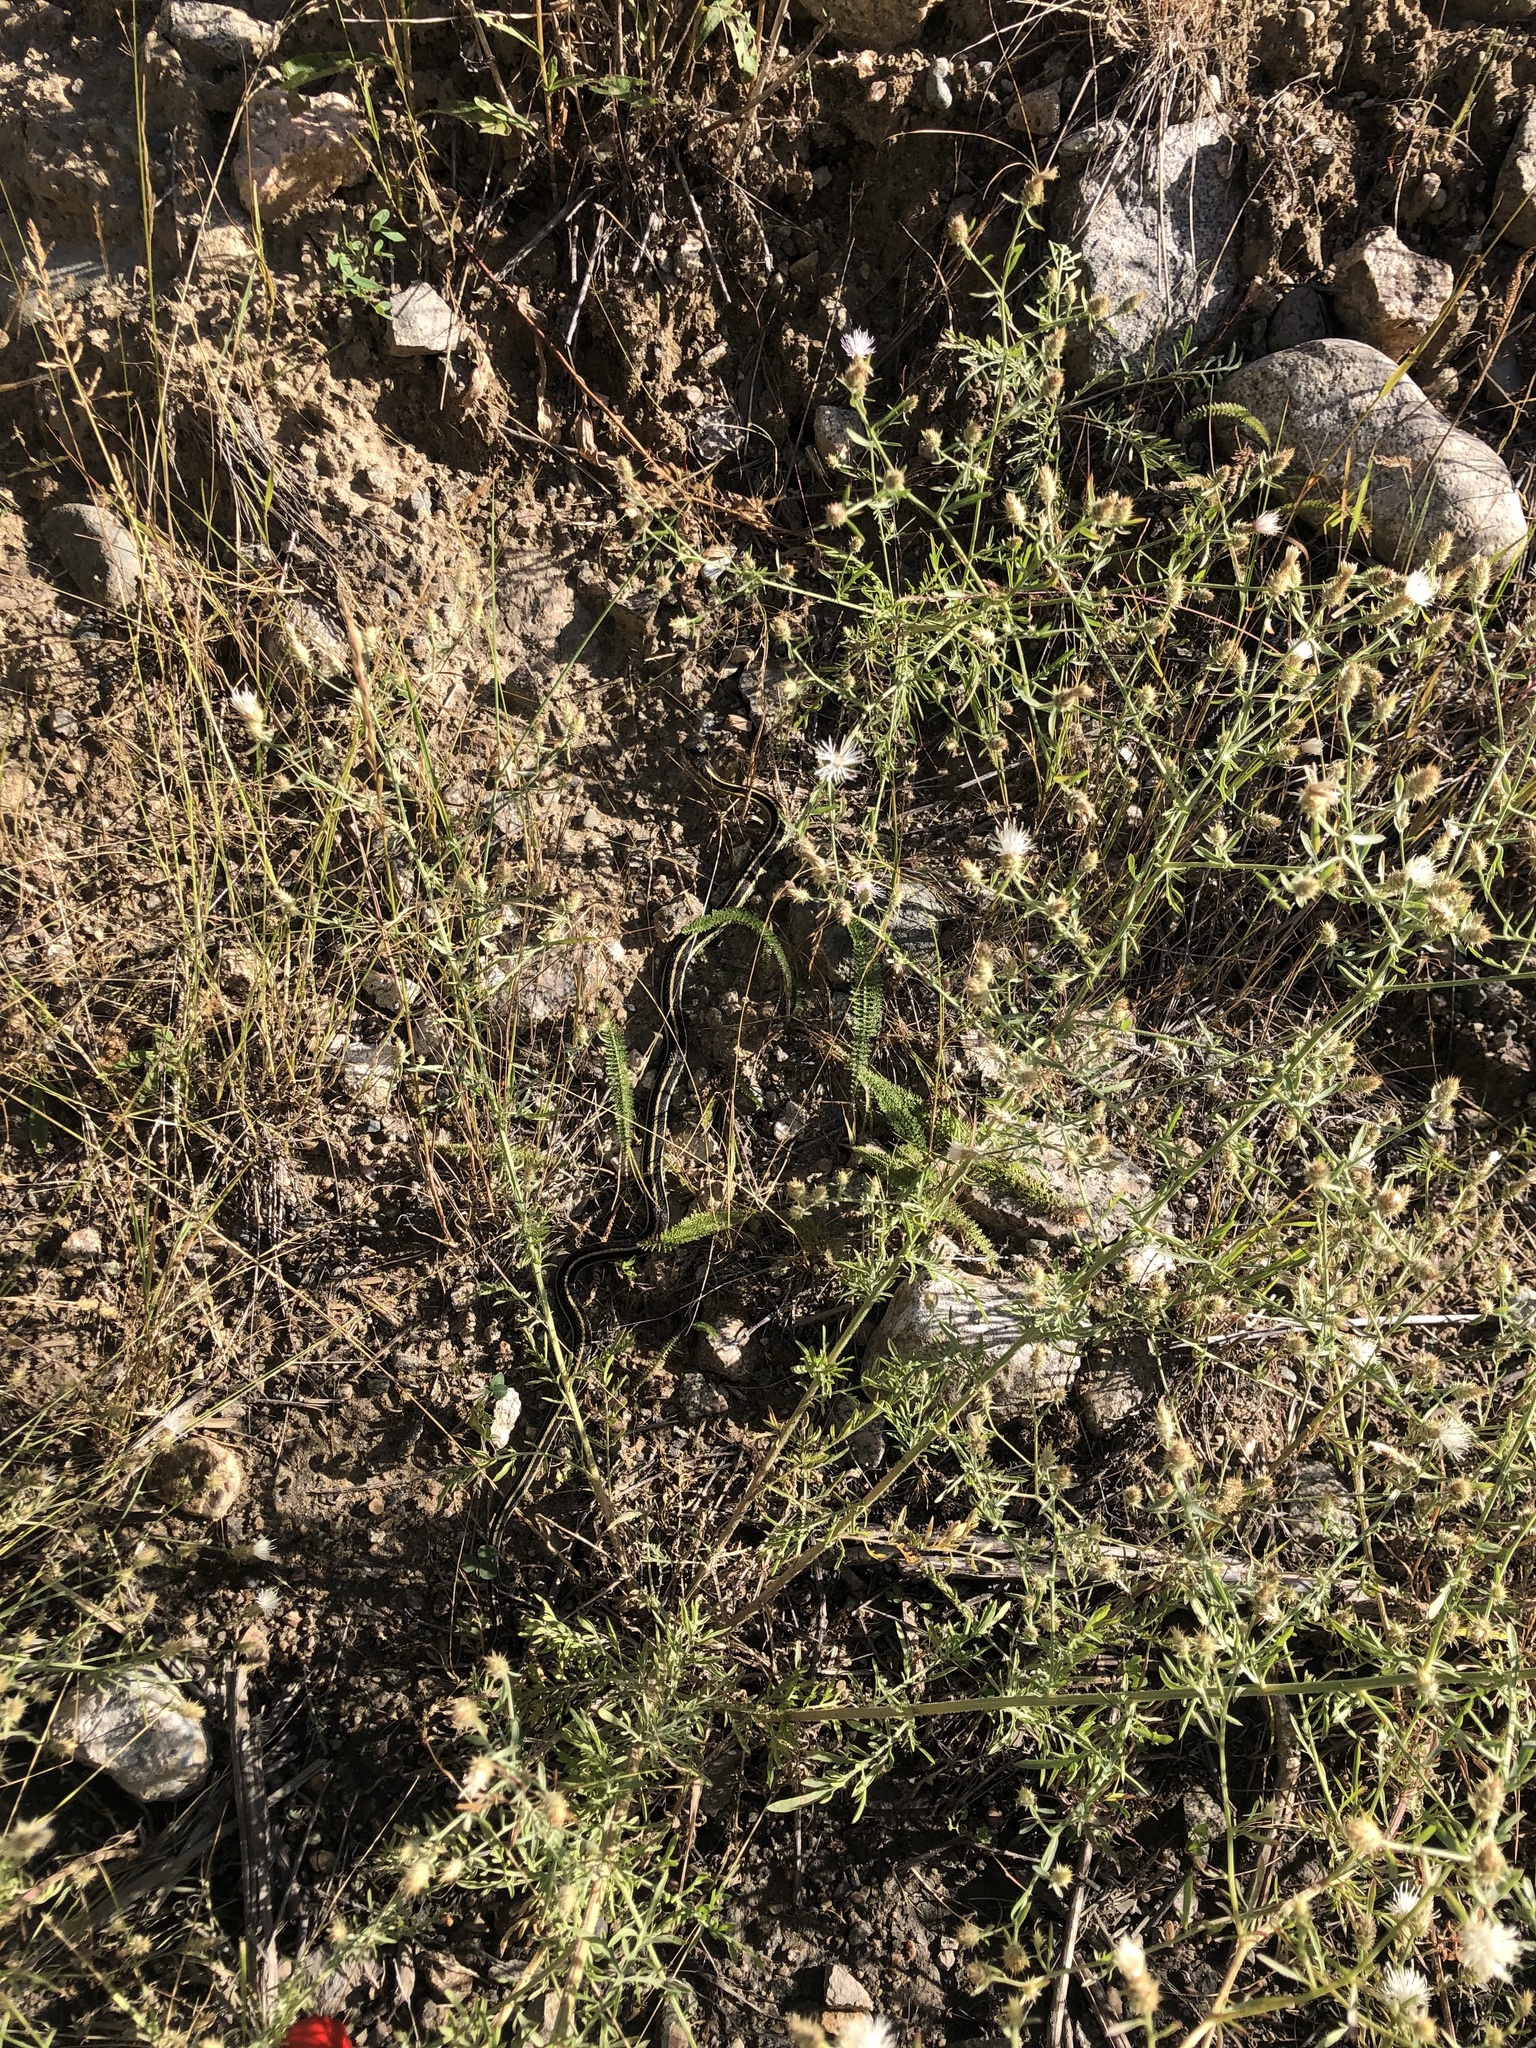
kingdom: Animalia
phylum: Chordata
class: Squamata
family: Colubridae
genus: Thamnophis
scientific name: Thamnophis sirtalis
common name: Common garter snake
